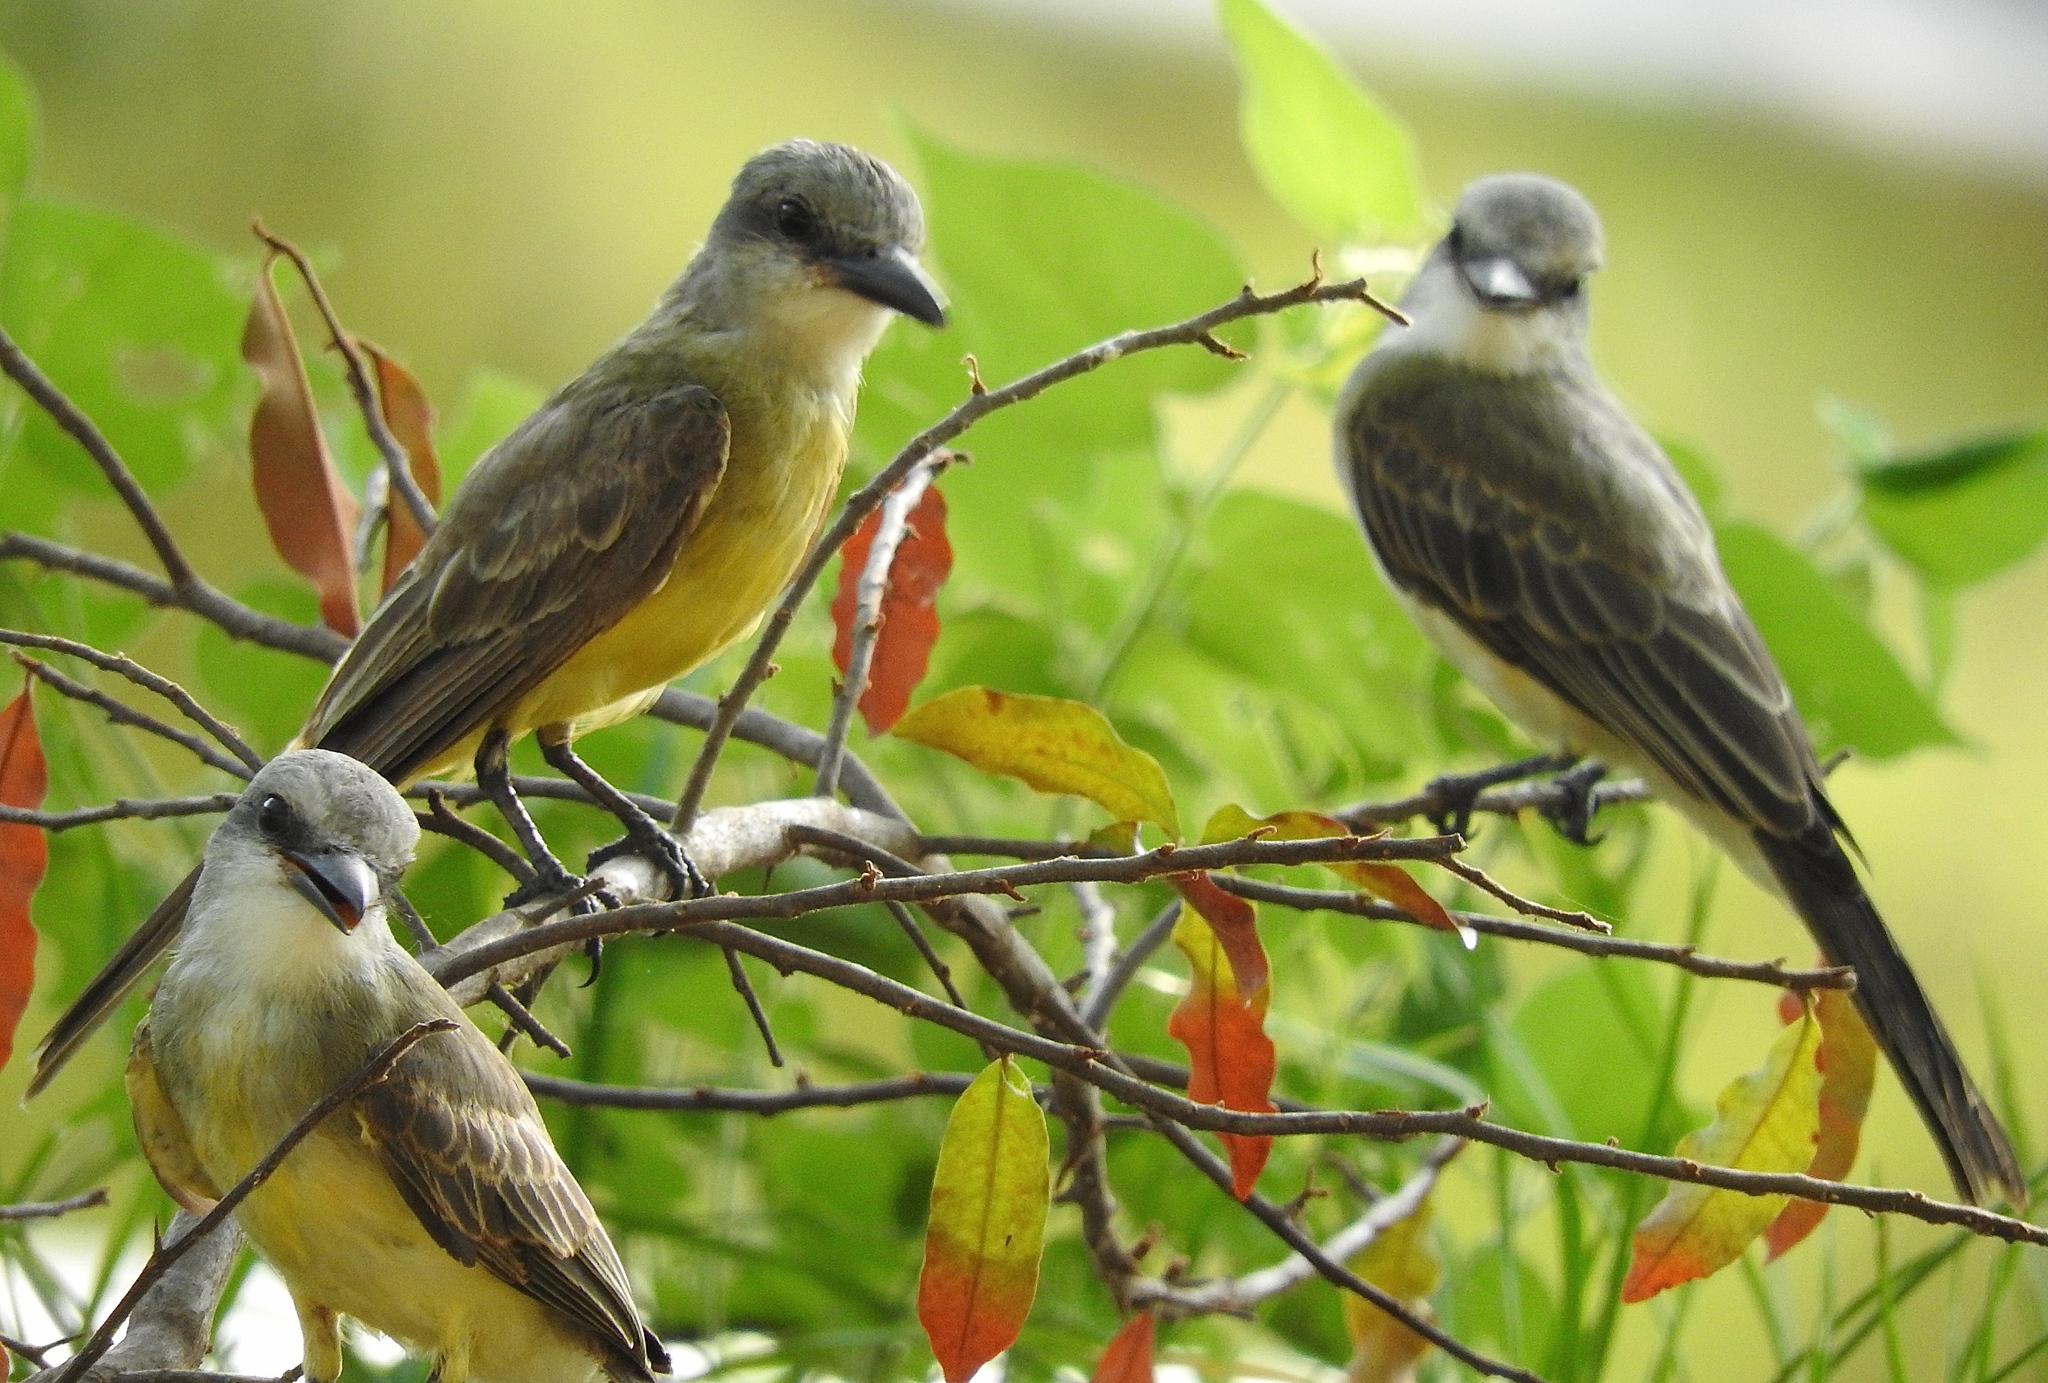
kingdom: Animalia
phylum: Chordata
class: Aves
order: Passeriformes
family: Tyrannidae
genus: Tyrannus
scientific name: Tyrannus melancholicus
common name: Tropical kingbird
